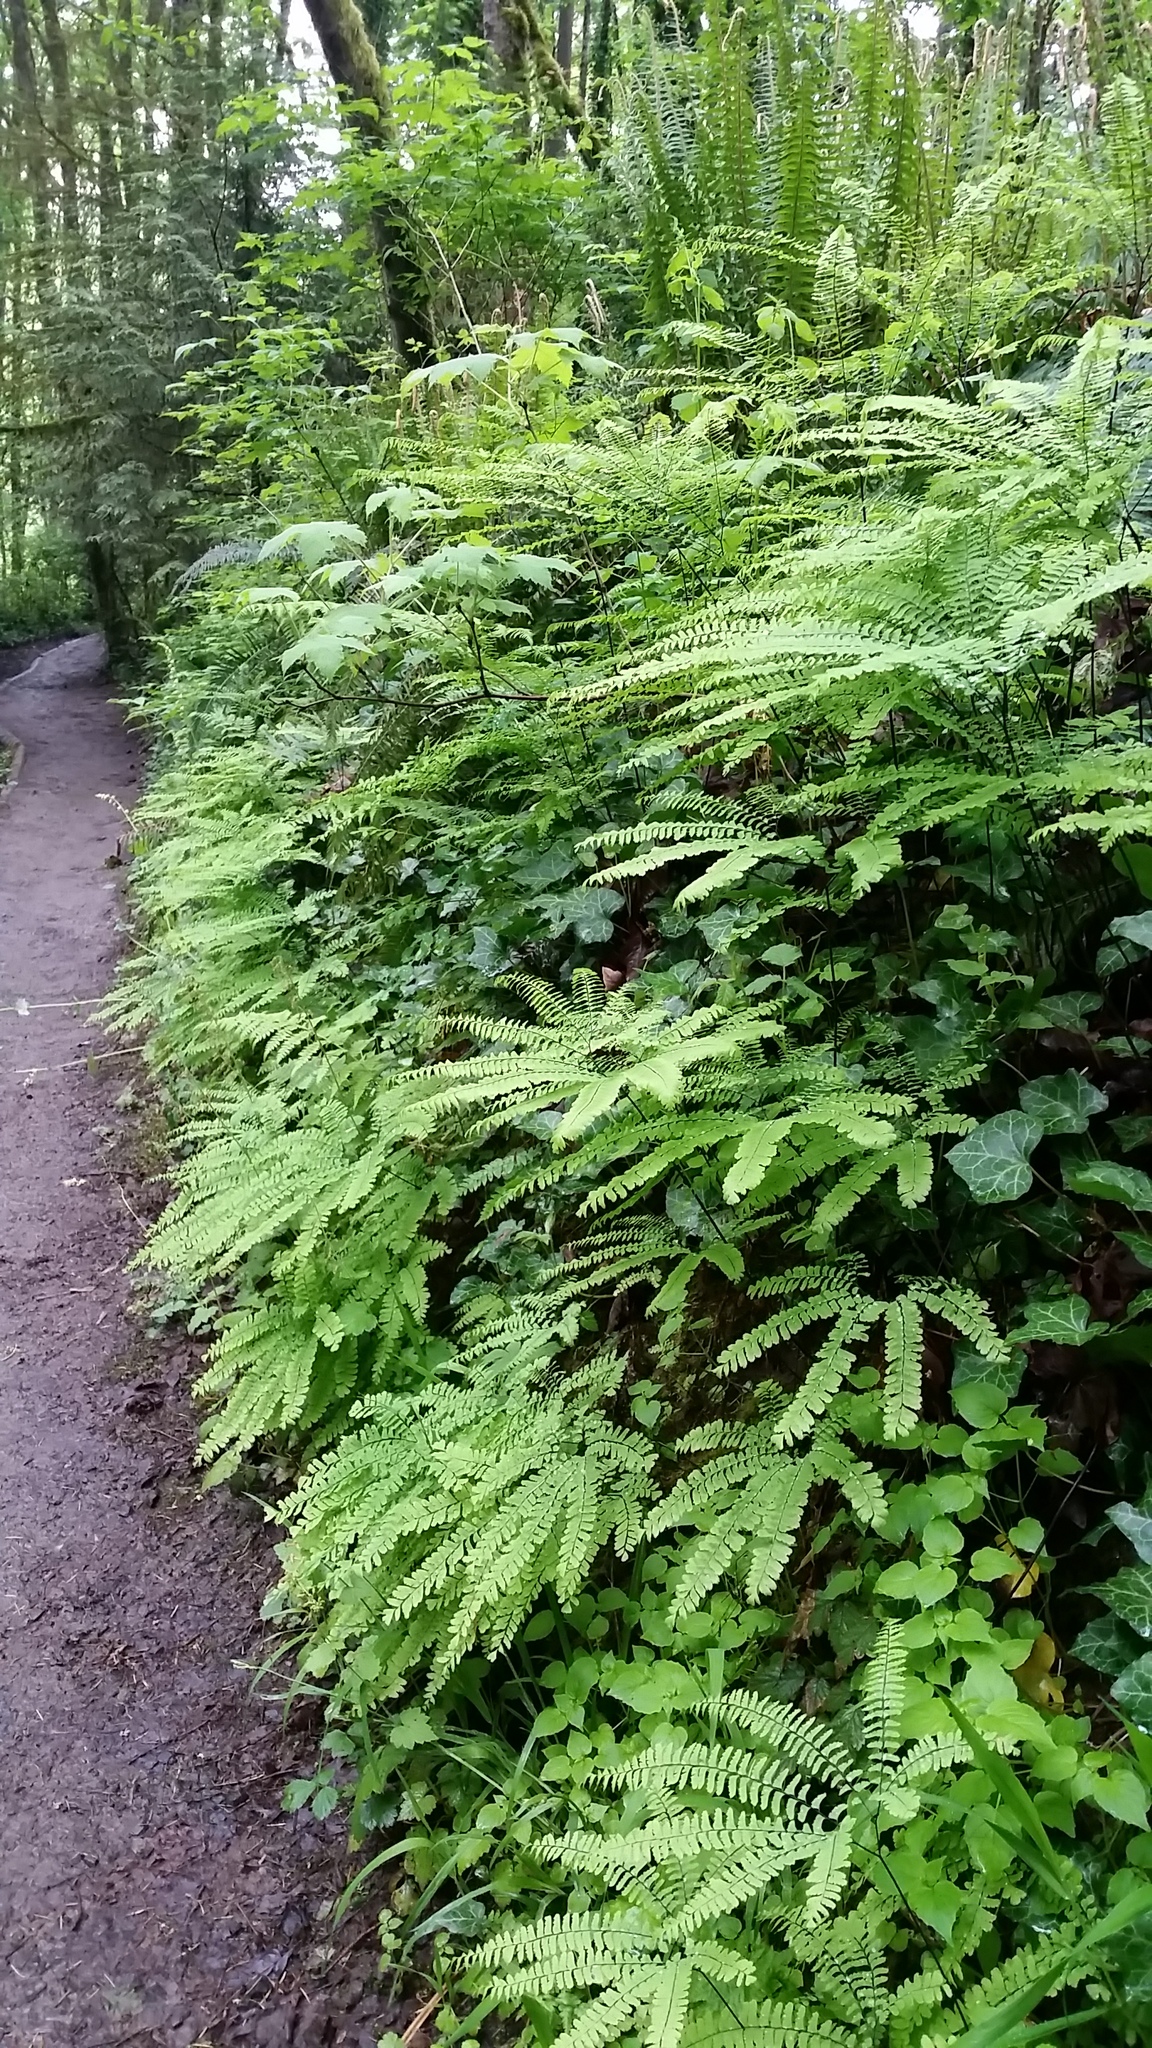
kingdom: Plantae
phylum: Tracheophyta
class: Polypodiopsida
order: Polypodiales
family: Pteridaceae
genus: Adiantum
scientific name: Adiantum aleuticum
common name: Aleutian maidenhair fern
